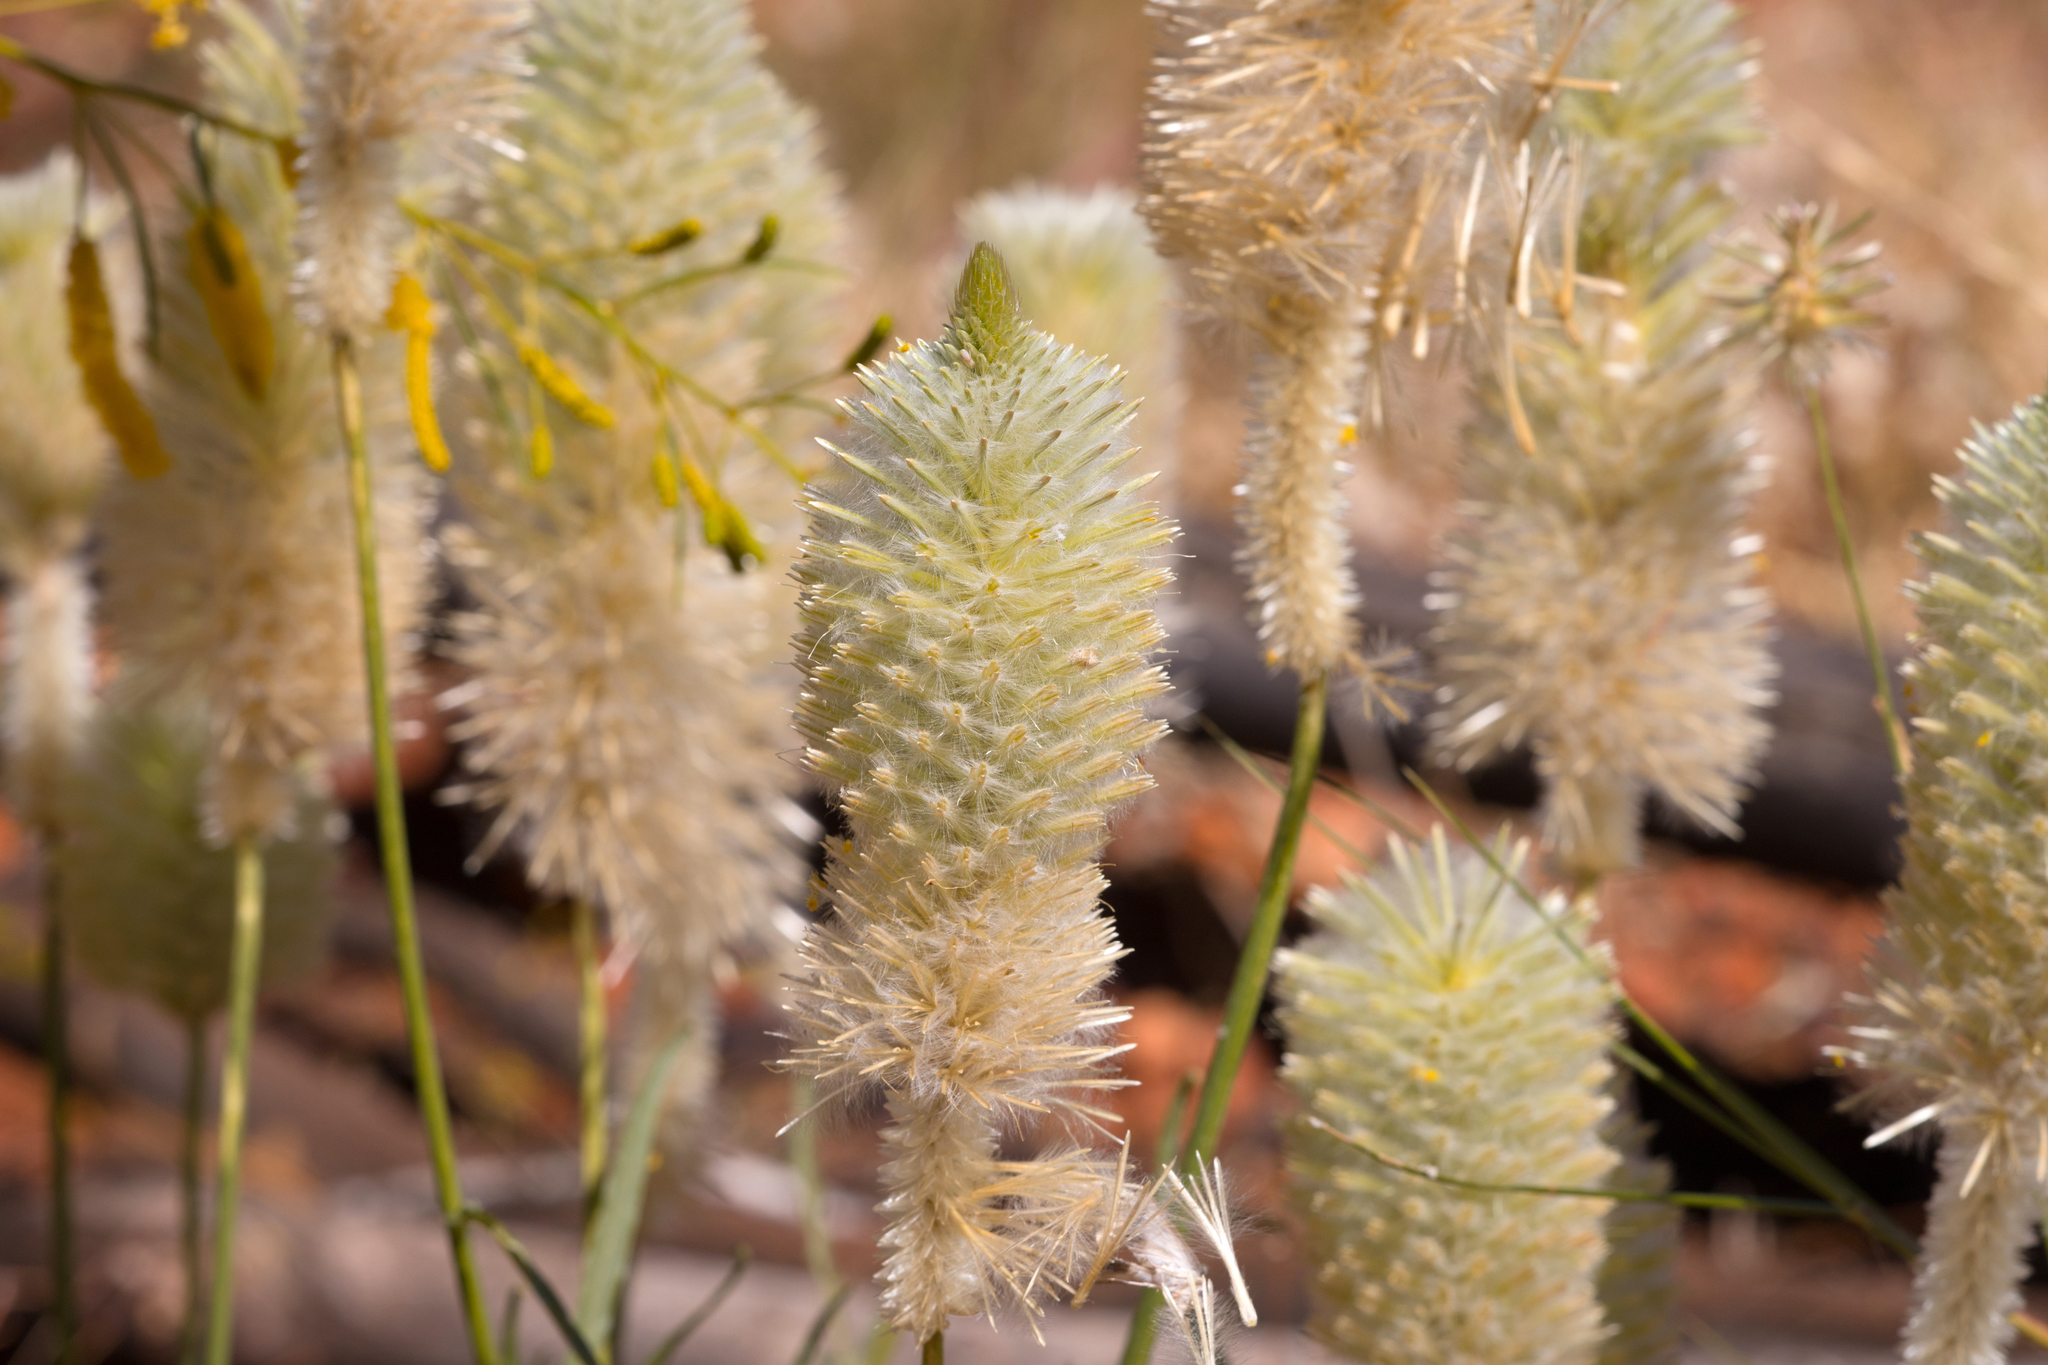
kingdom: Plantae
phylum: Tracheophyta
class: Magnoliopsida
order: Caryophyllales
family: Amaranthaceae
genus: Ptilotus
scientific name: Ptilotus xerophilus
